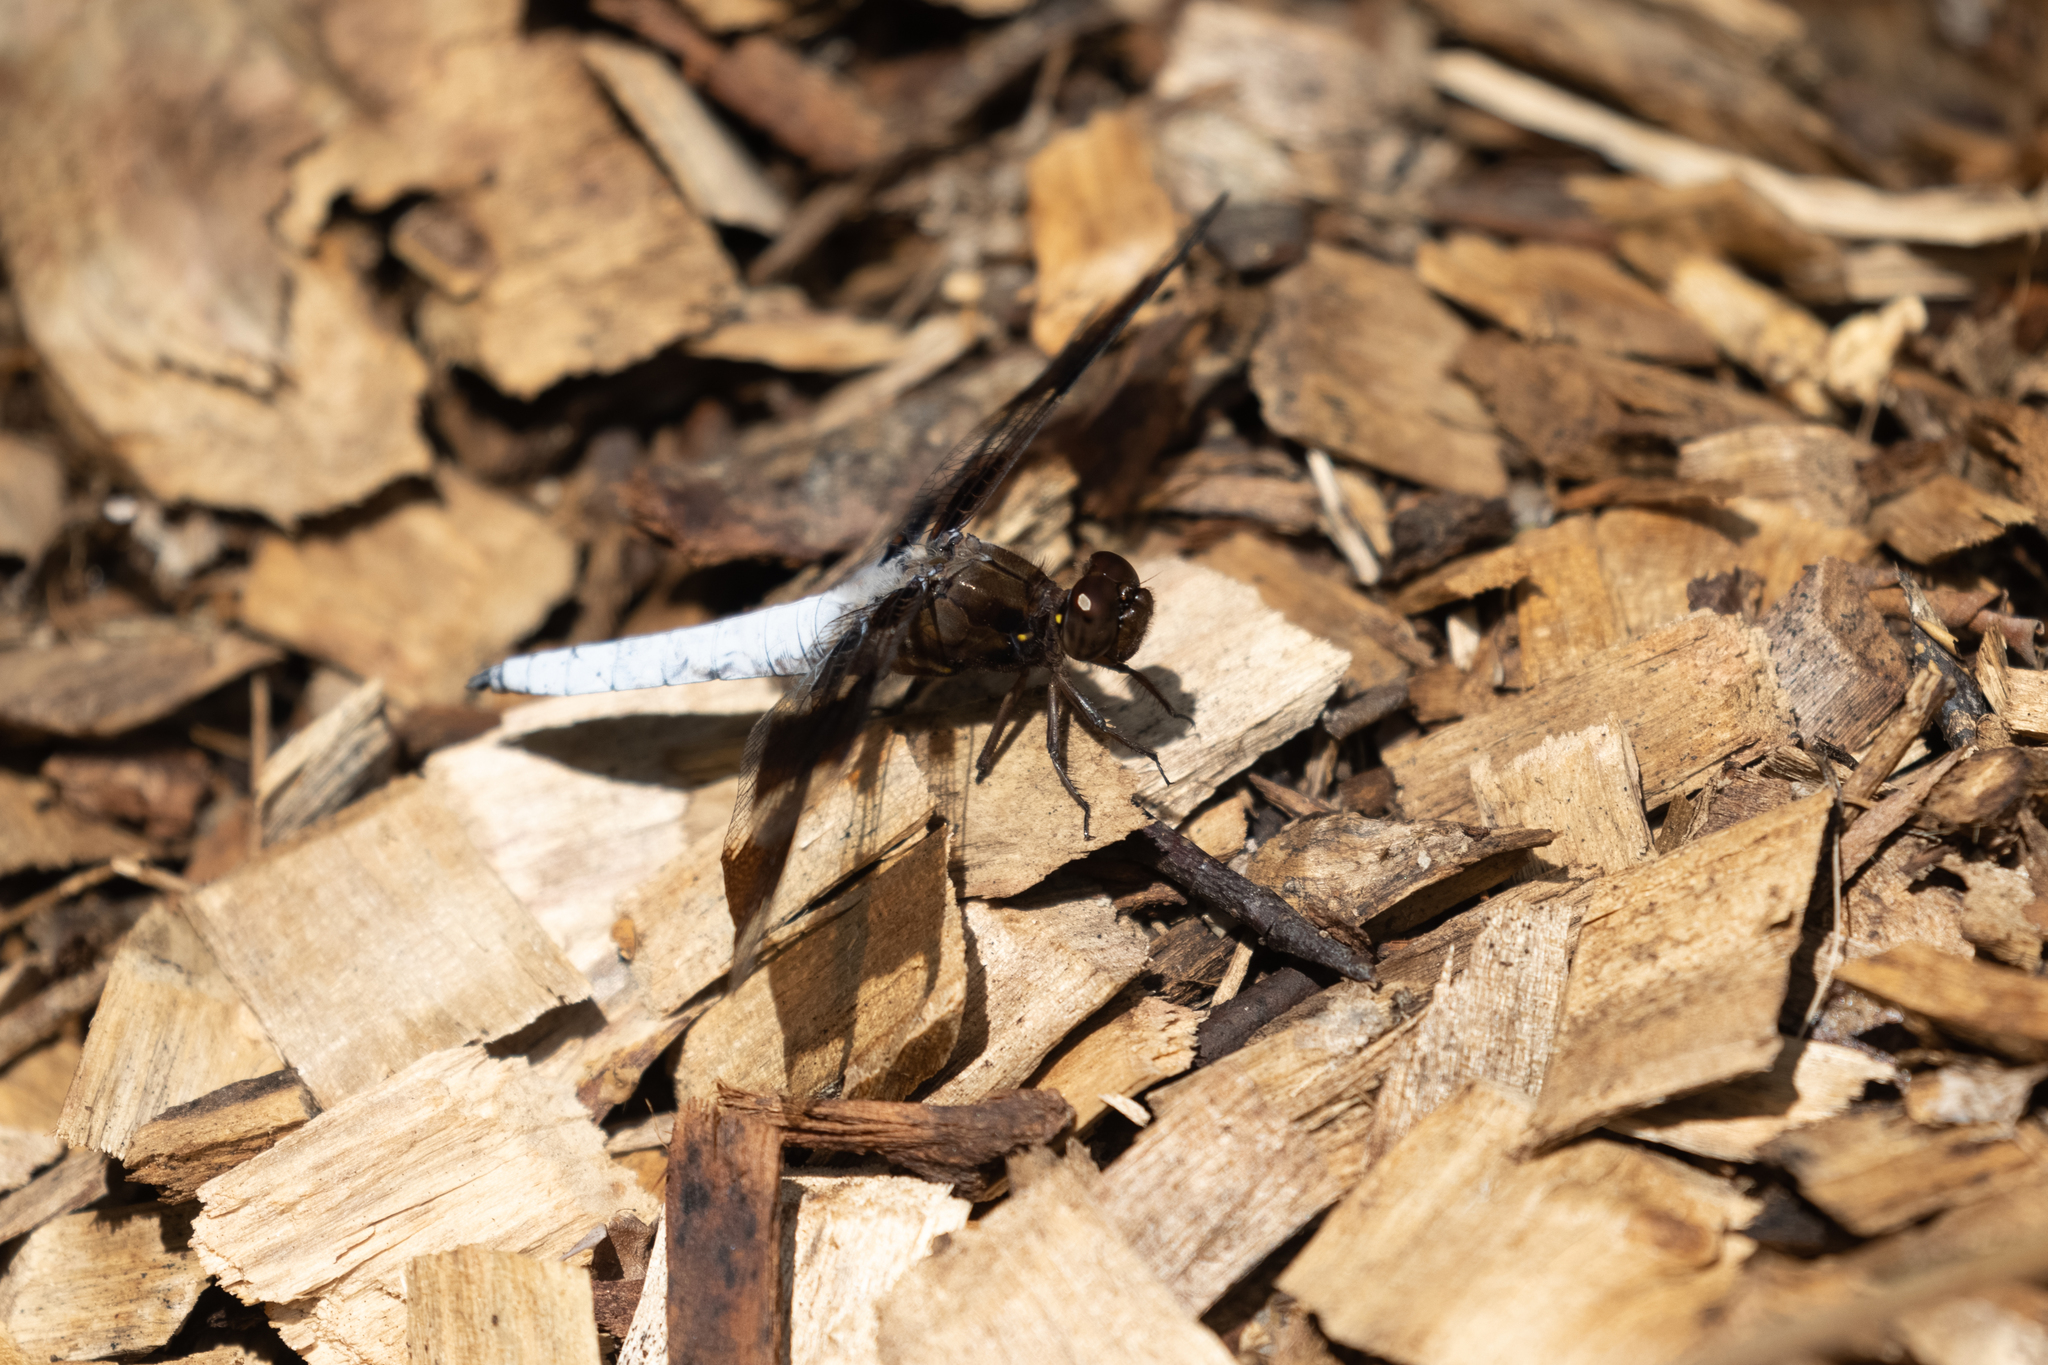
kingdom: Animalia
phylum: Arthropoda
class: Insecta
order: Odonata
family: Libellulidae
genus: Plathemis
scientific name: Plathemis lydia
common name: Common whitetail
